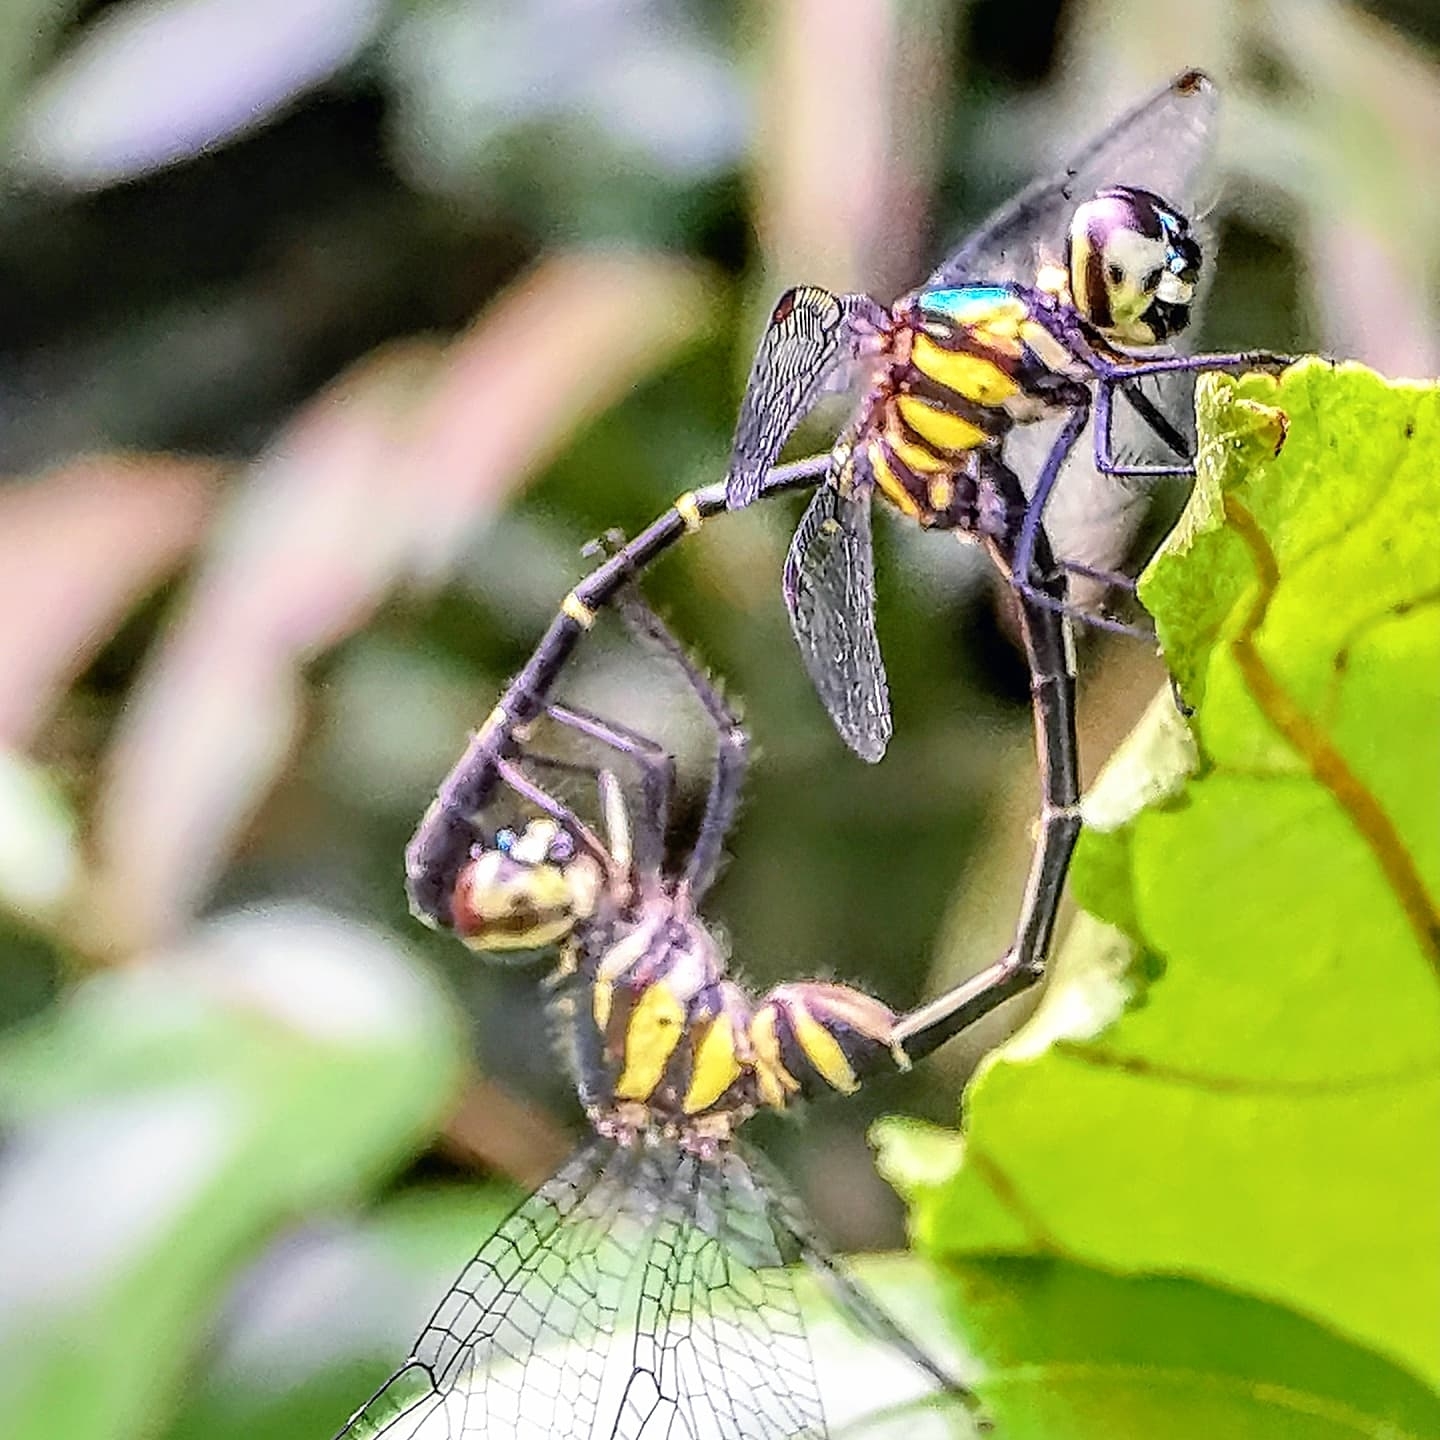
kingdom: Animalia
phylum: Arthropoda
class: Insecta
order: Odonata
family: Libellulidae
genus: Risiophlebia
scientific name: Risiophlebia dohrni
